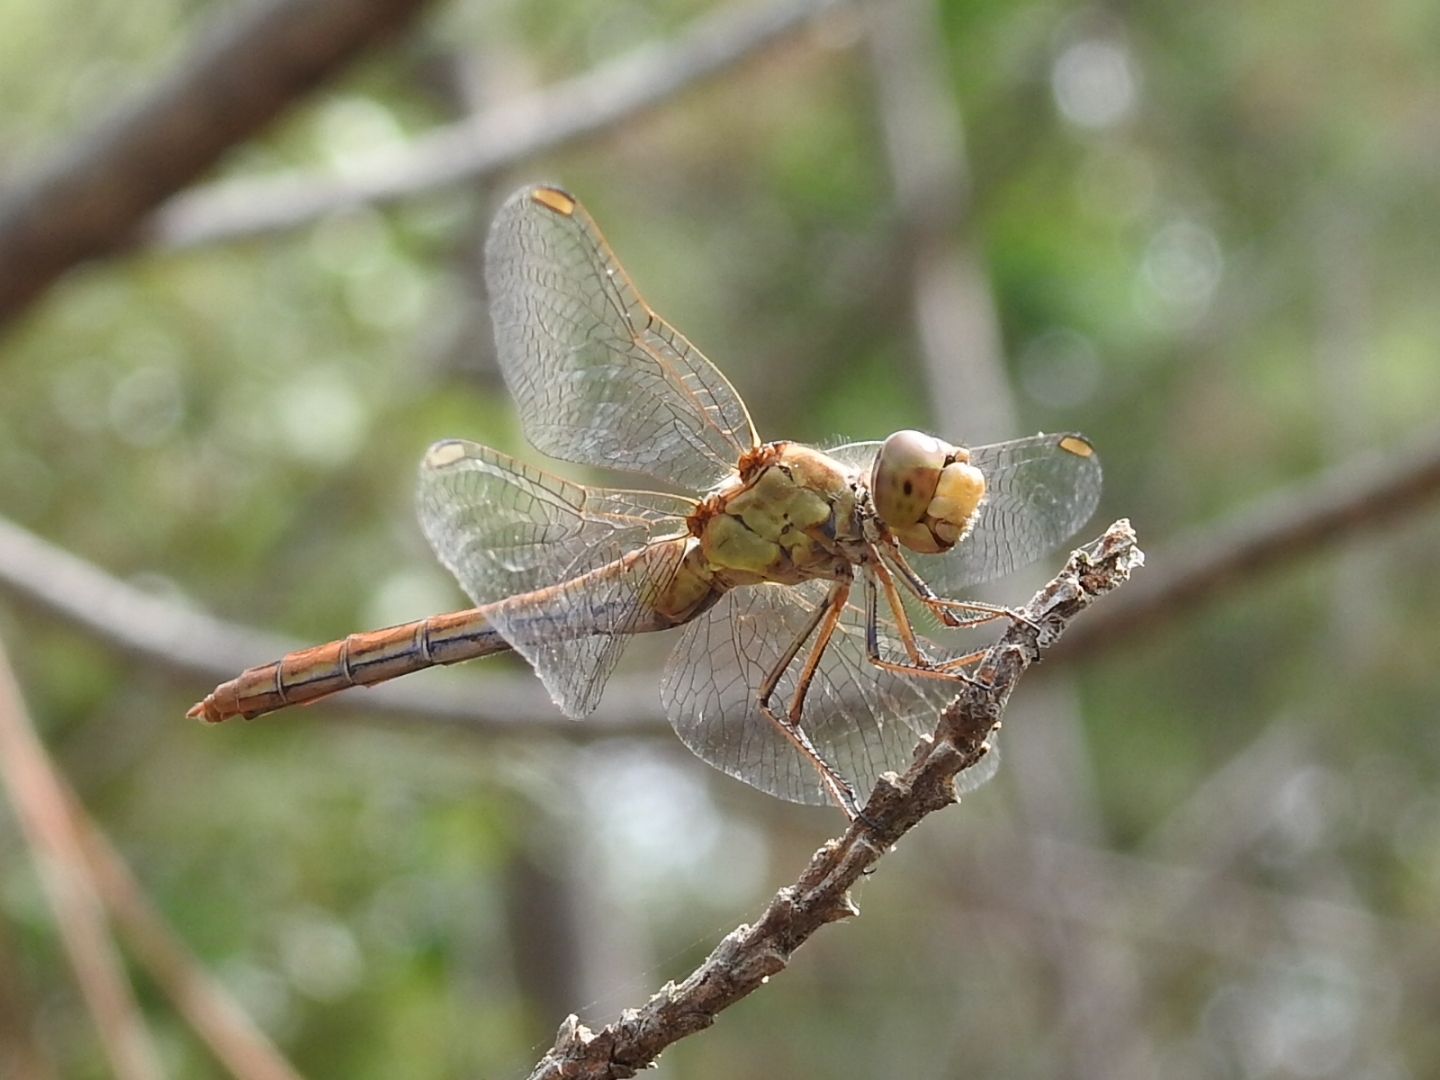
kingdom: Animalia
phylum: Arthropoda
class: Insecta
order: Odonata
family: Libellulidae
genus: Sympetrum
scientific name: Sympetrum meridionale
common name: Southern darter
